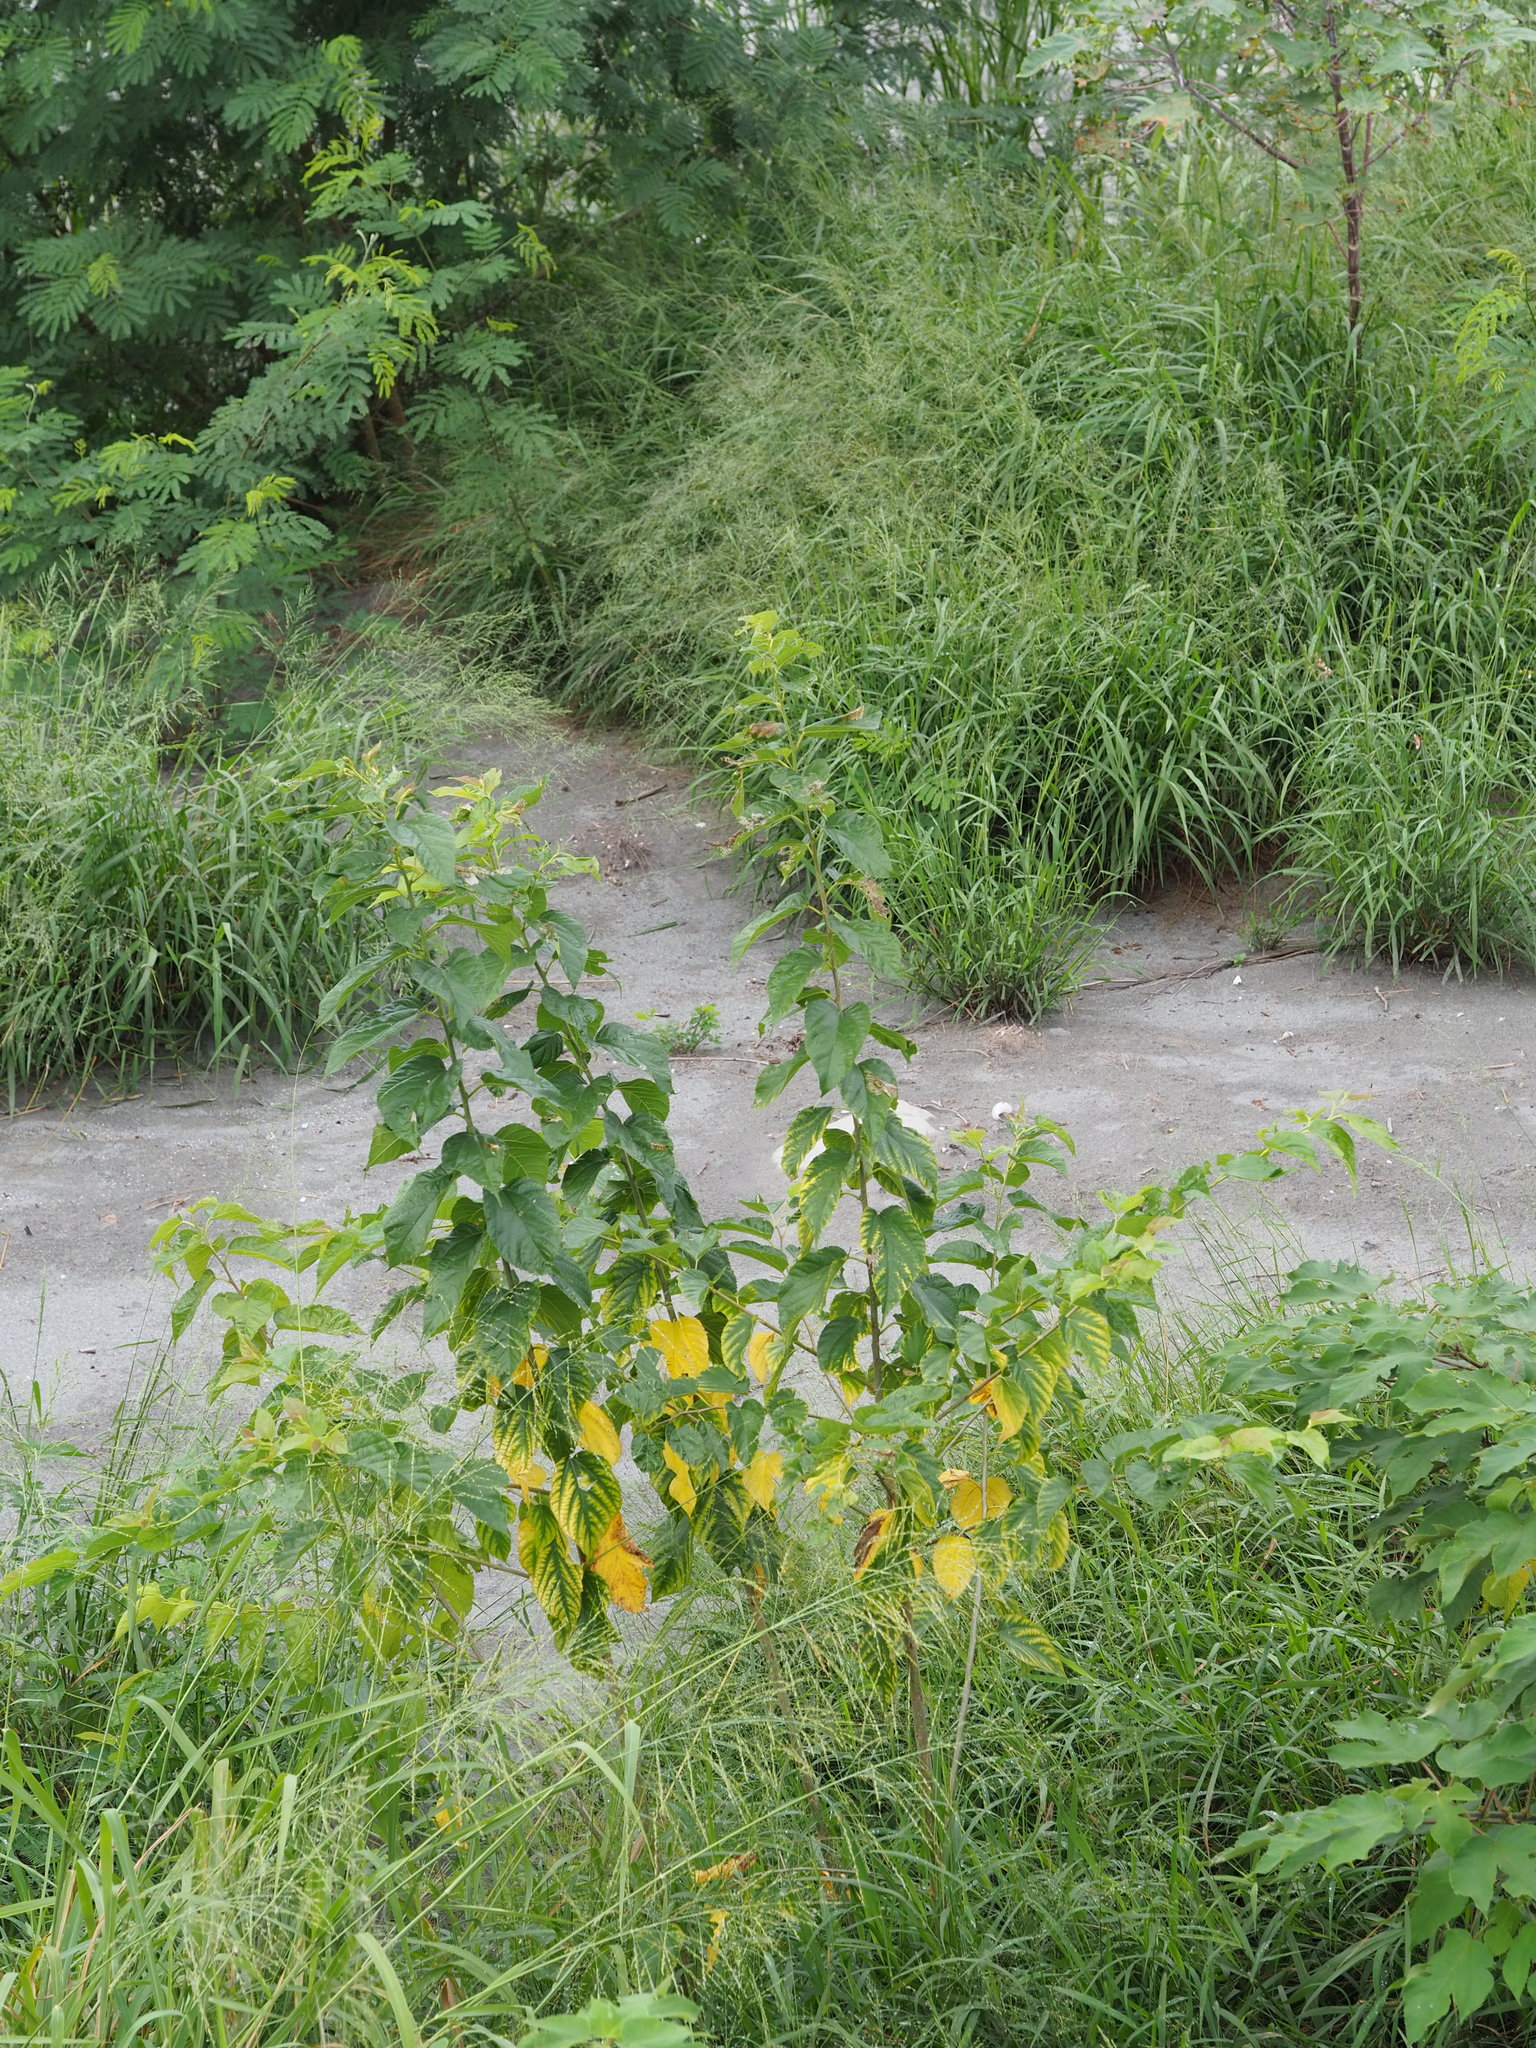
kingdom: Plantae
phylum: Tracheophyta
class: Magnoliopsida
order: Rosales
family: Moraceae
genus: Morus
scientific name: Morus indica
